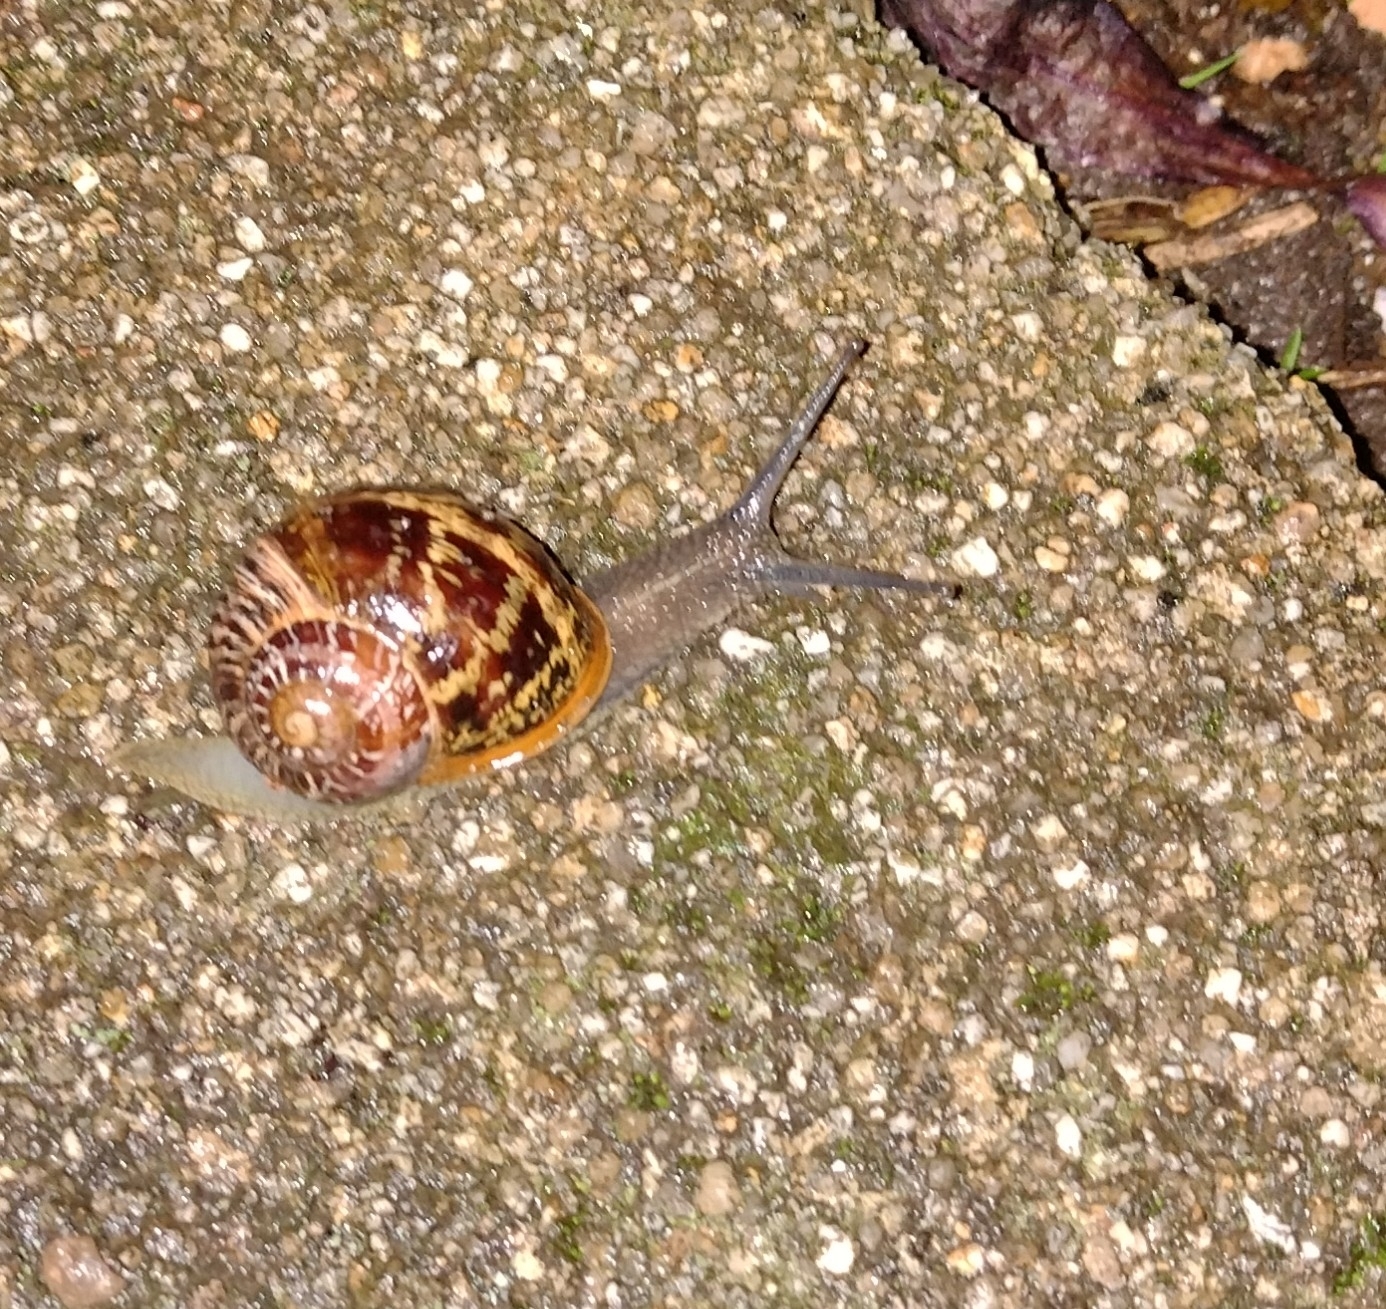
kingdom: Animalia
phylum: Mollusca
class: Gastropoda
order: Stylommatophora
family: Helicidae
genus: Cornu
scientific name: Cornu aspersum
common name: Brown garden snail
